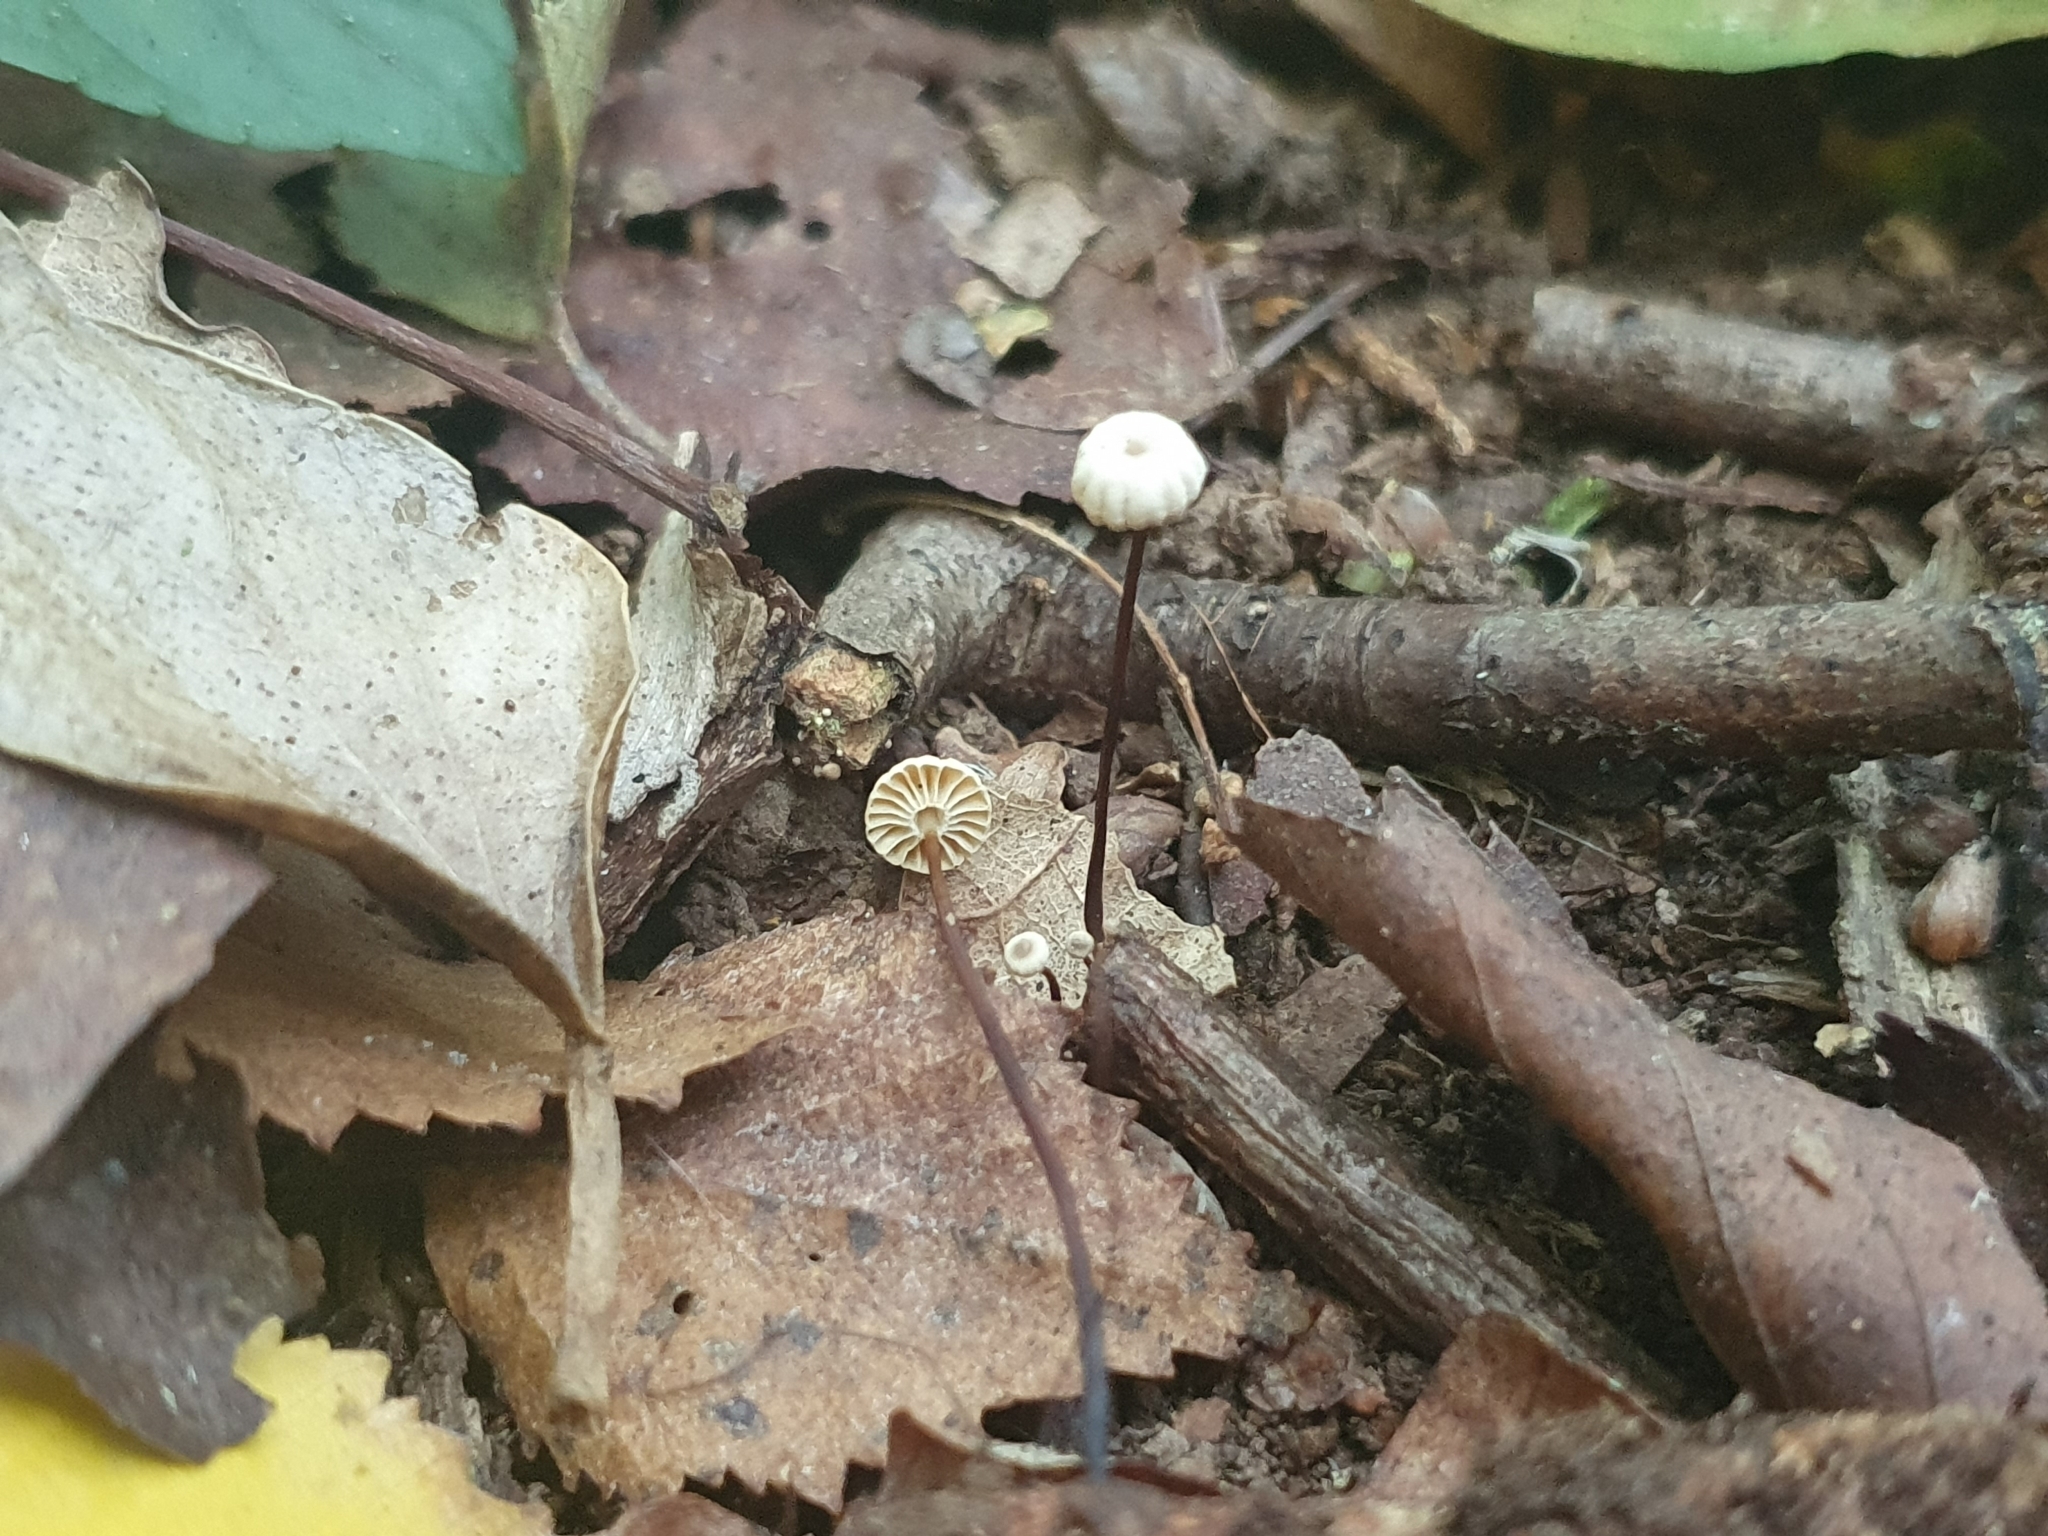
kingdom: Fungi
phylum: Basidiomycota
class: Agaricomycetes
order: Agaricales
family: Marasmiaceae
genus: Marasmius
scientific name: Marasmius rotula
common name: Collared parachute
